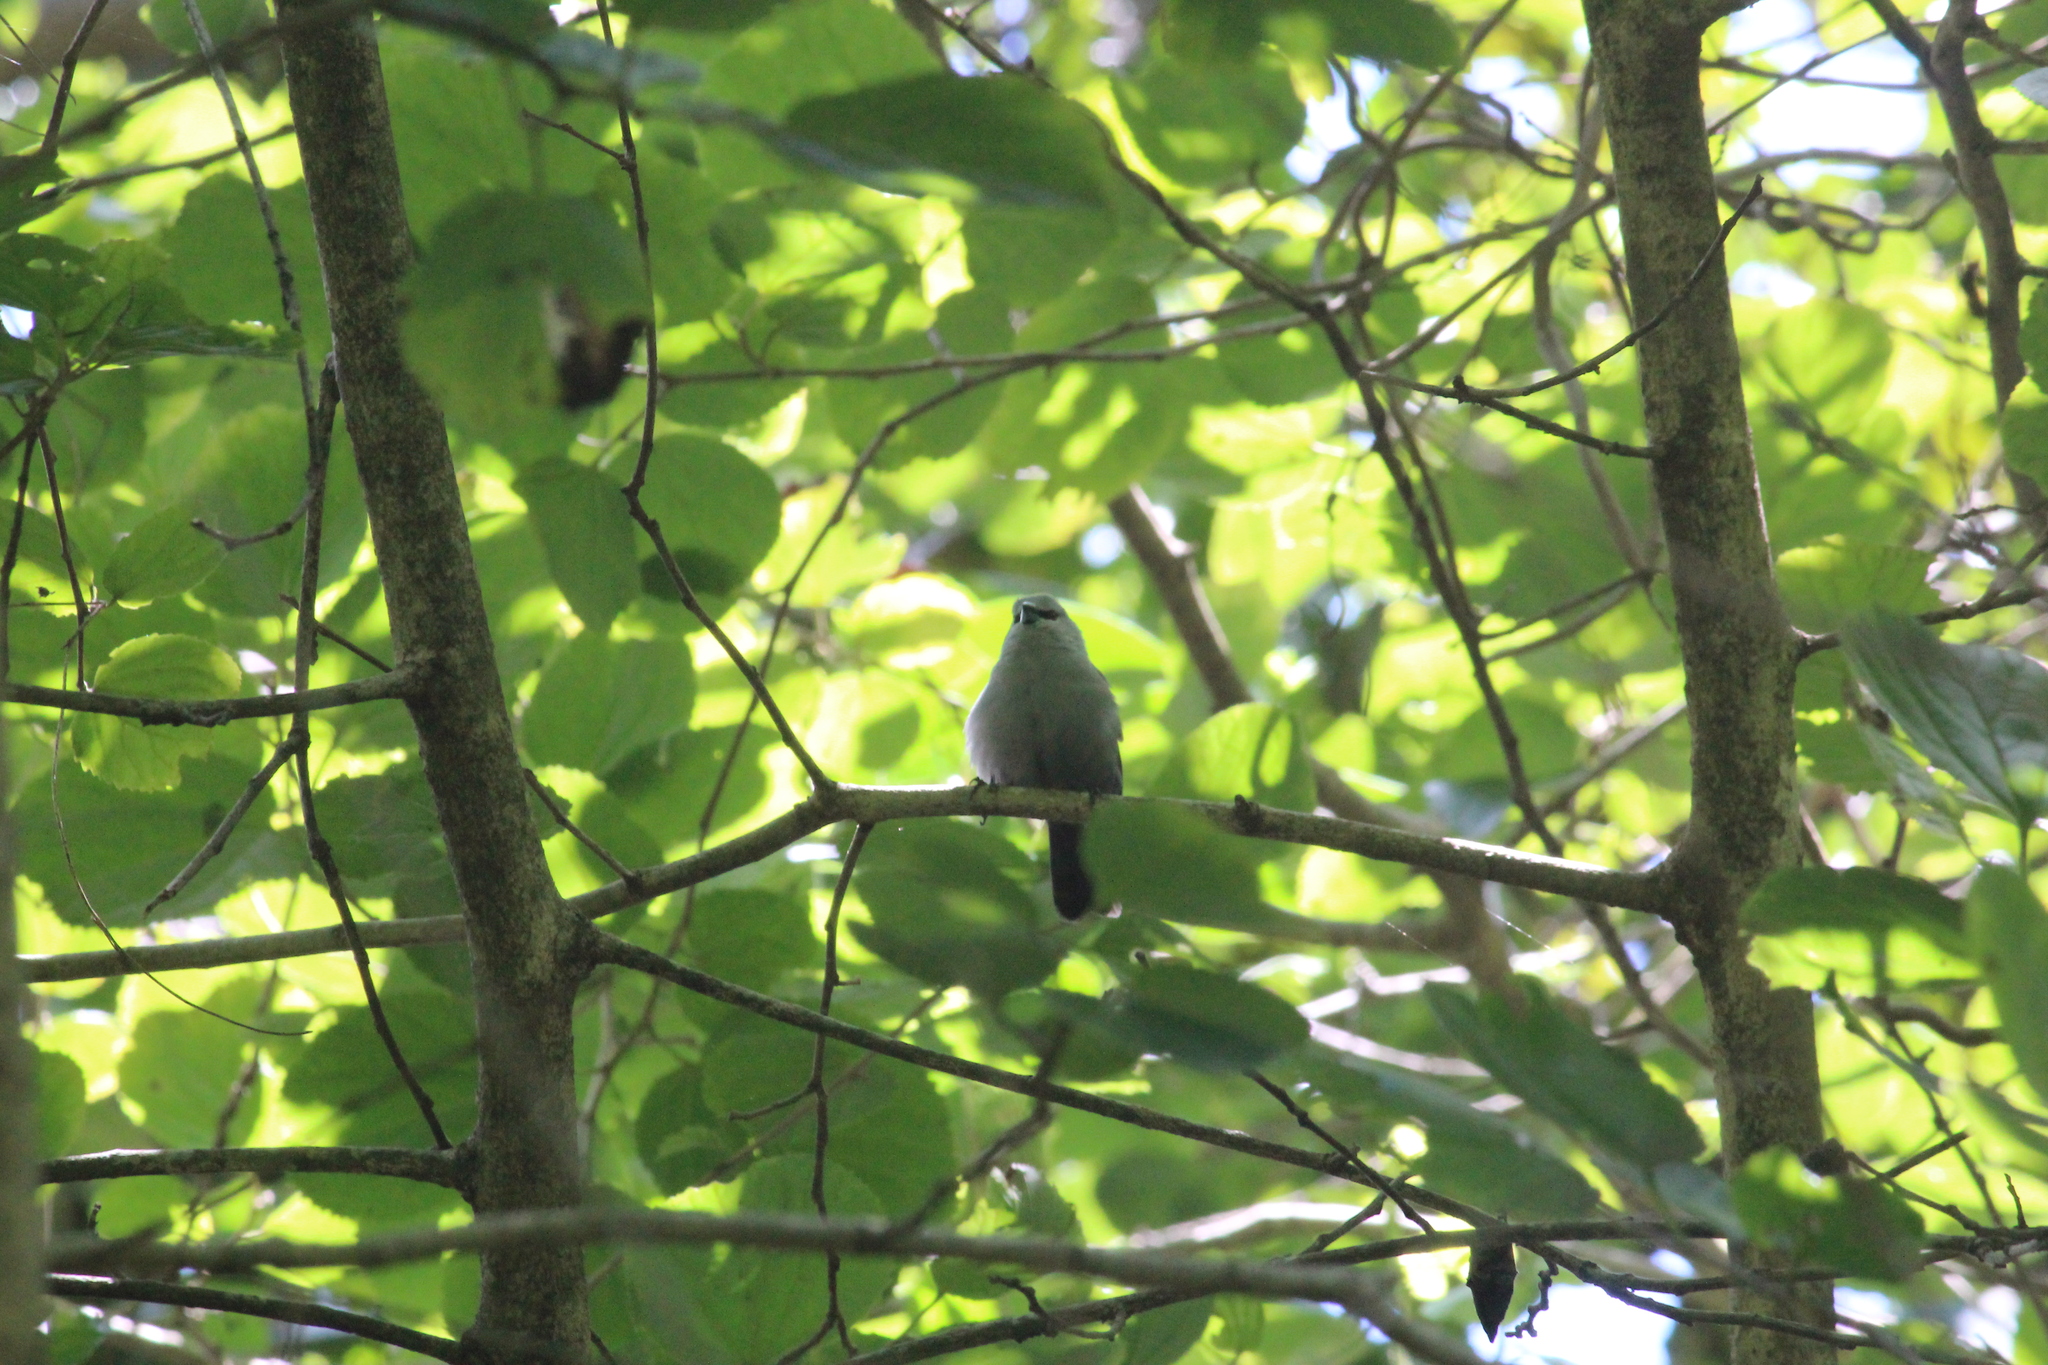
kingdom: Animalia
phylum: Chordata
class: Aves
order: Passeriformes
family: Estrildidae
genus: Estrilda
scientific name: Estrilda perreini
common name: Grey waxbill
